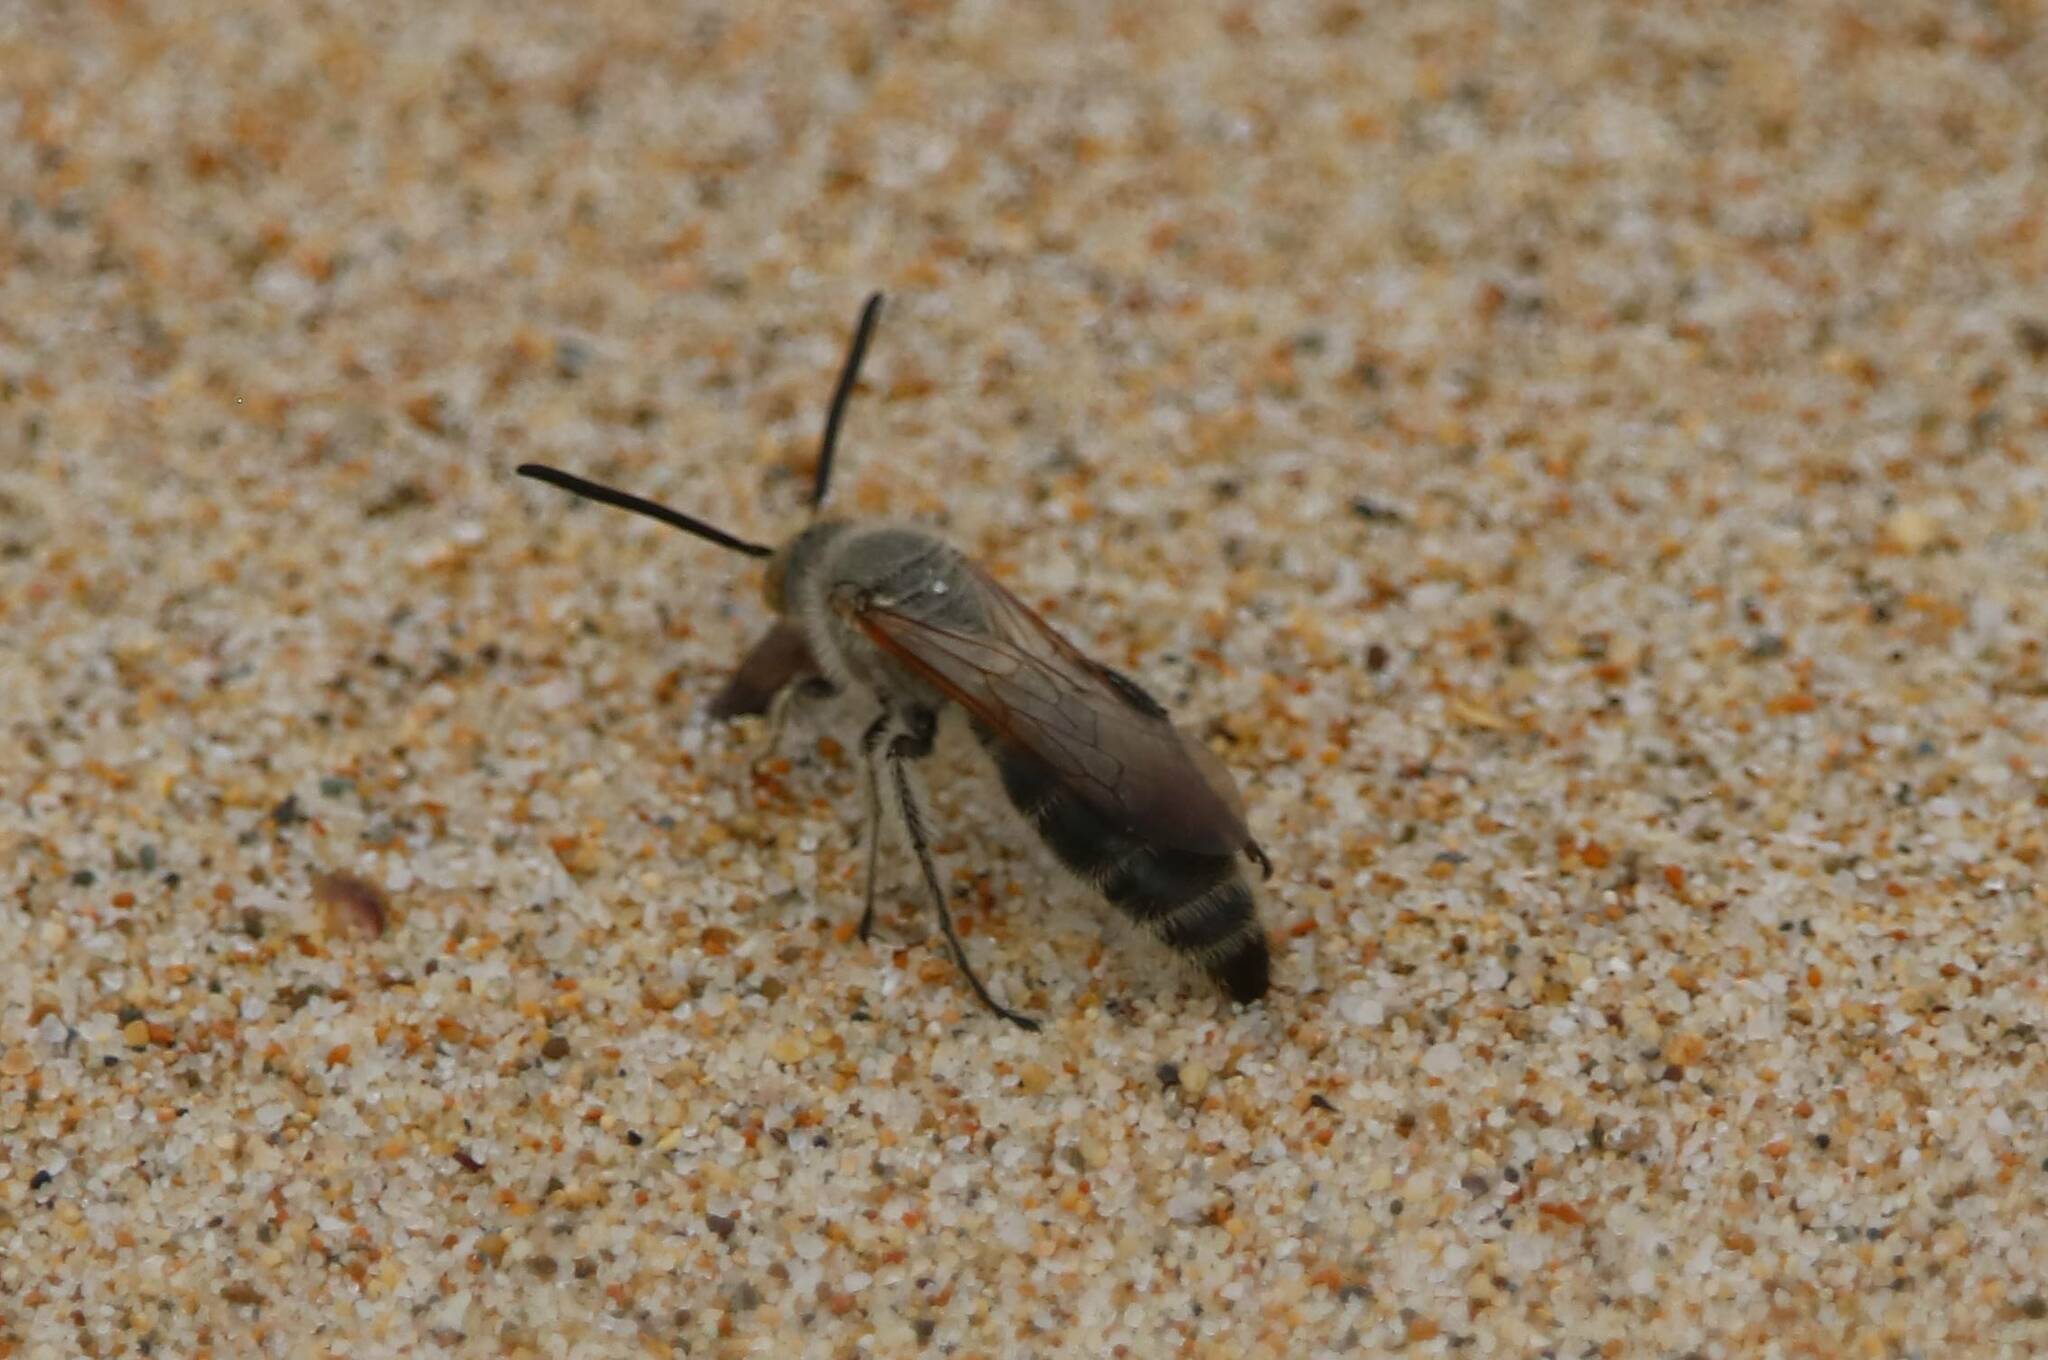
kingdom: Animalia
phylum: Arthropoda
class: Insecta
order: Hymenoptera
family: Scoliidae
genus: Campsomeriella
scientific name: Campsomeriella thoracica
